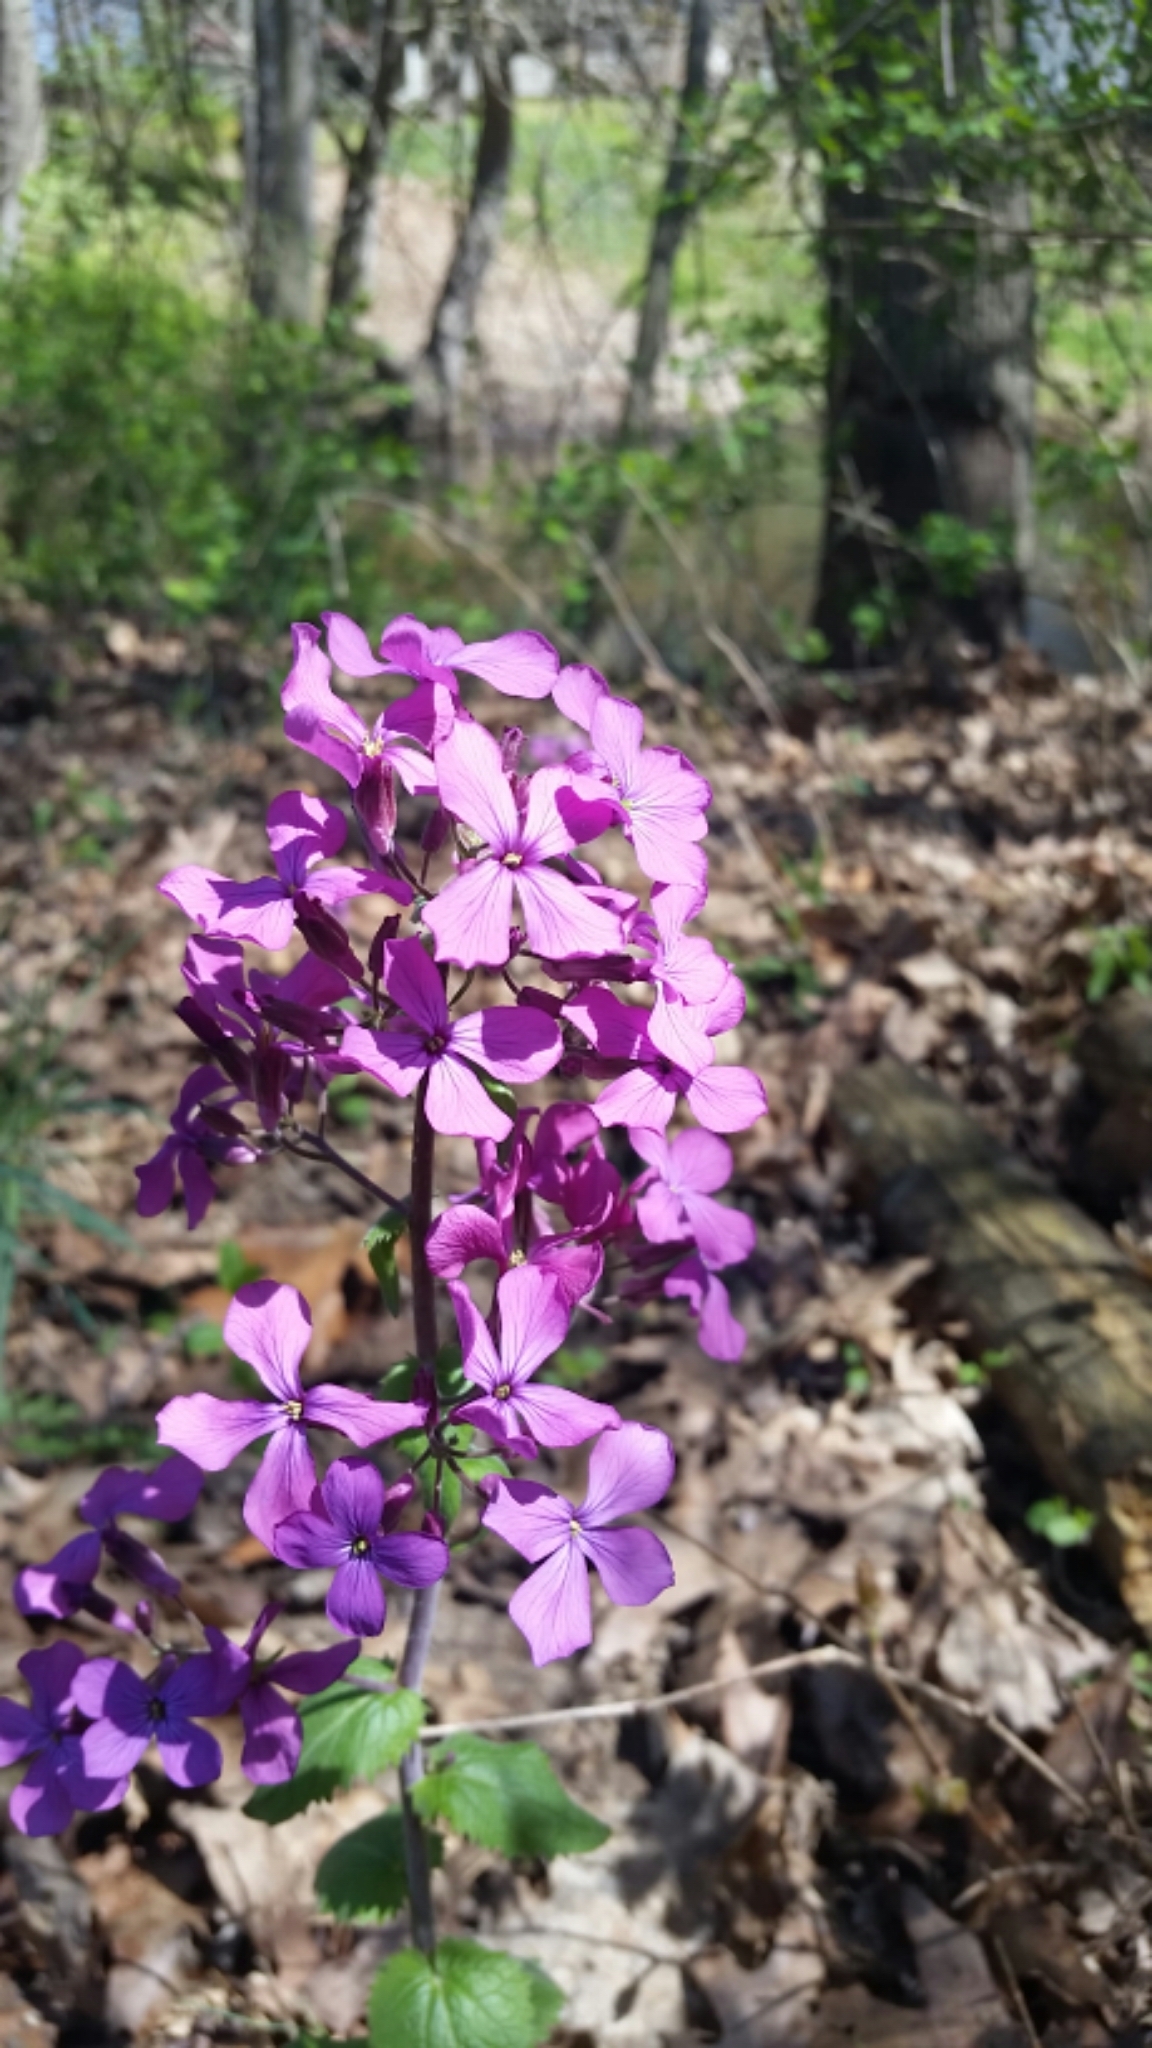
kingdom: Plantae
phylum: Tracheophyta
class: Magnoliopsida
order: Brassicales
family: Brassicaceae
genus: Lunaria
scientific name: Lunaria annua
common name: Honesty
